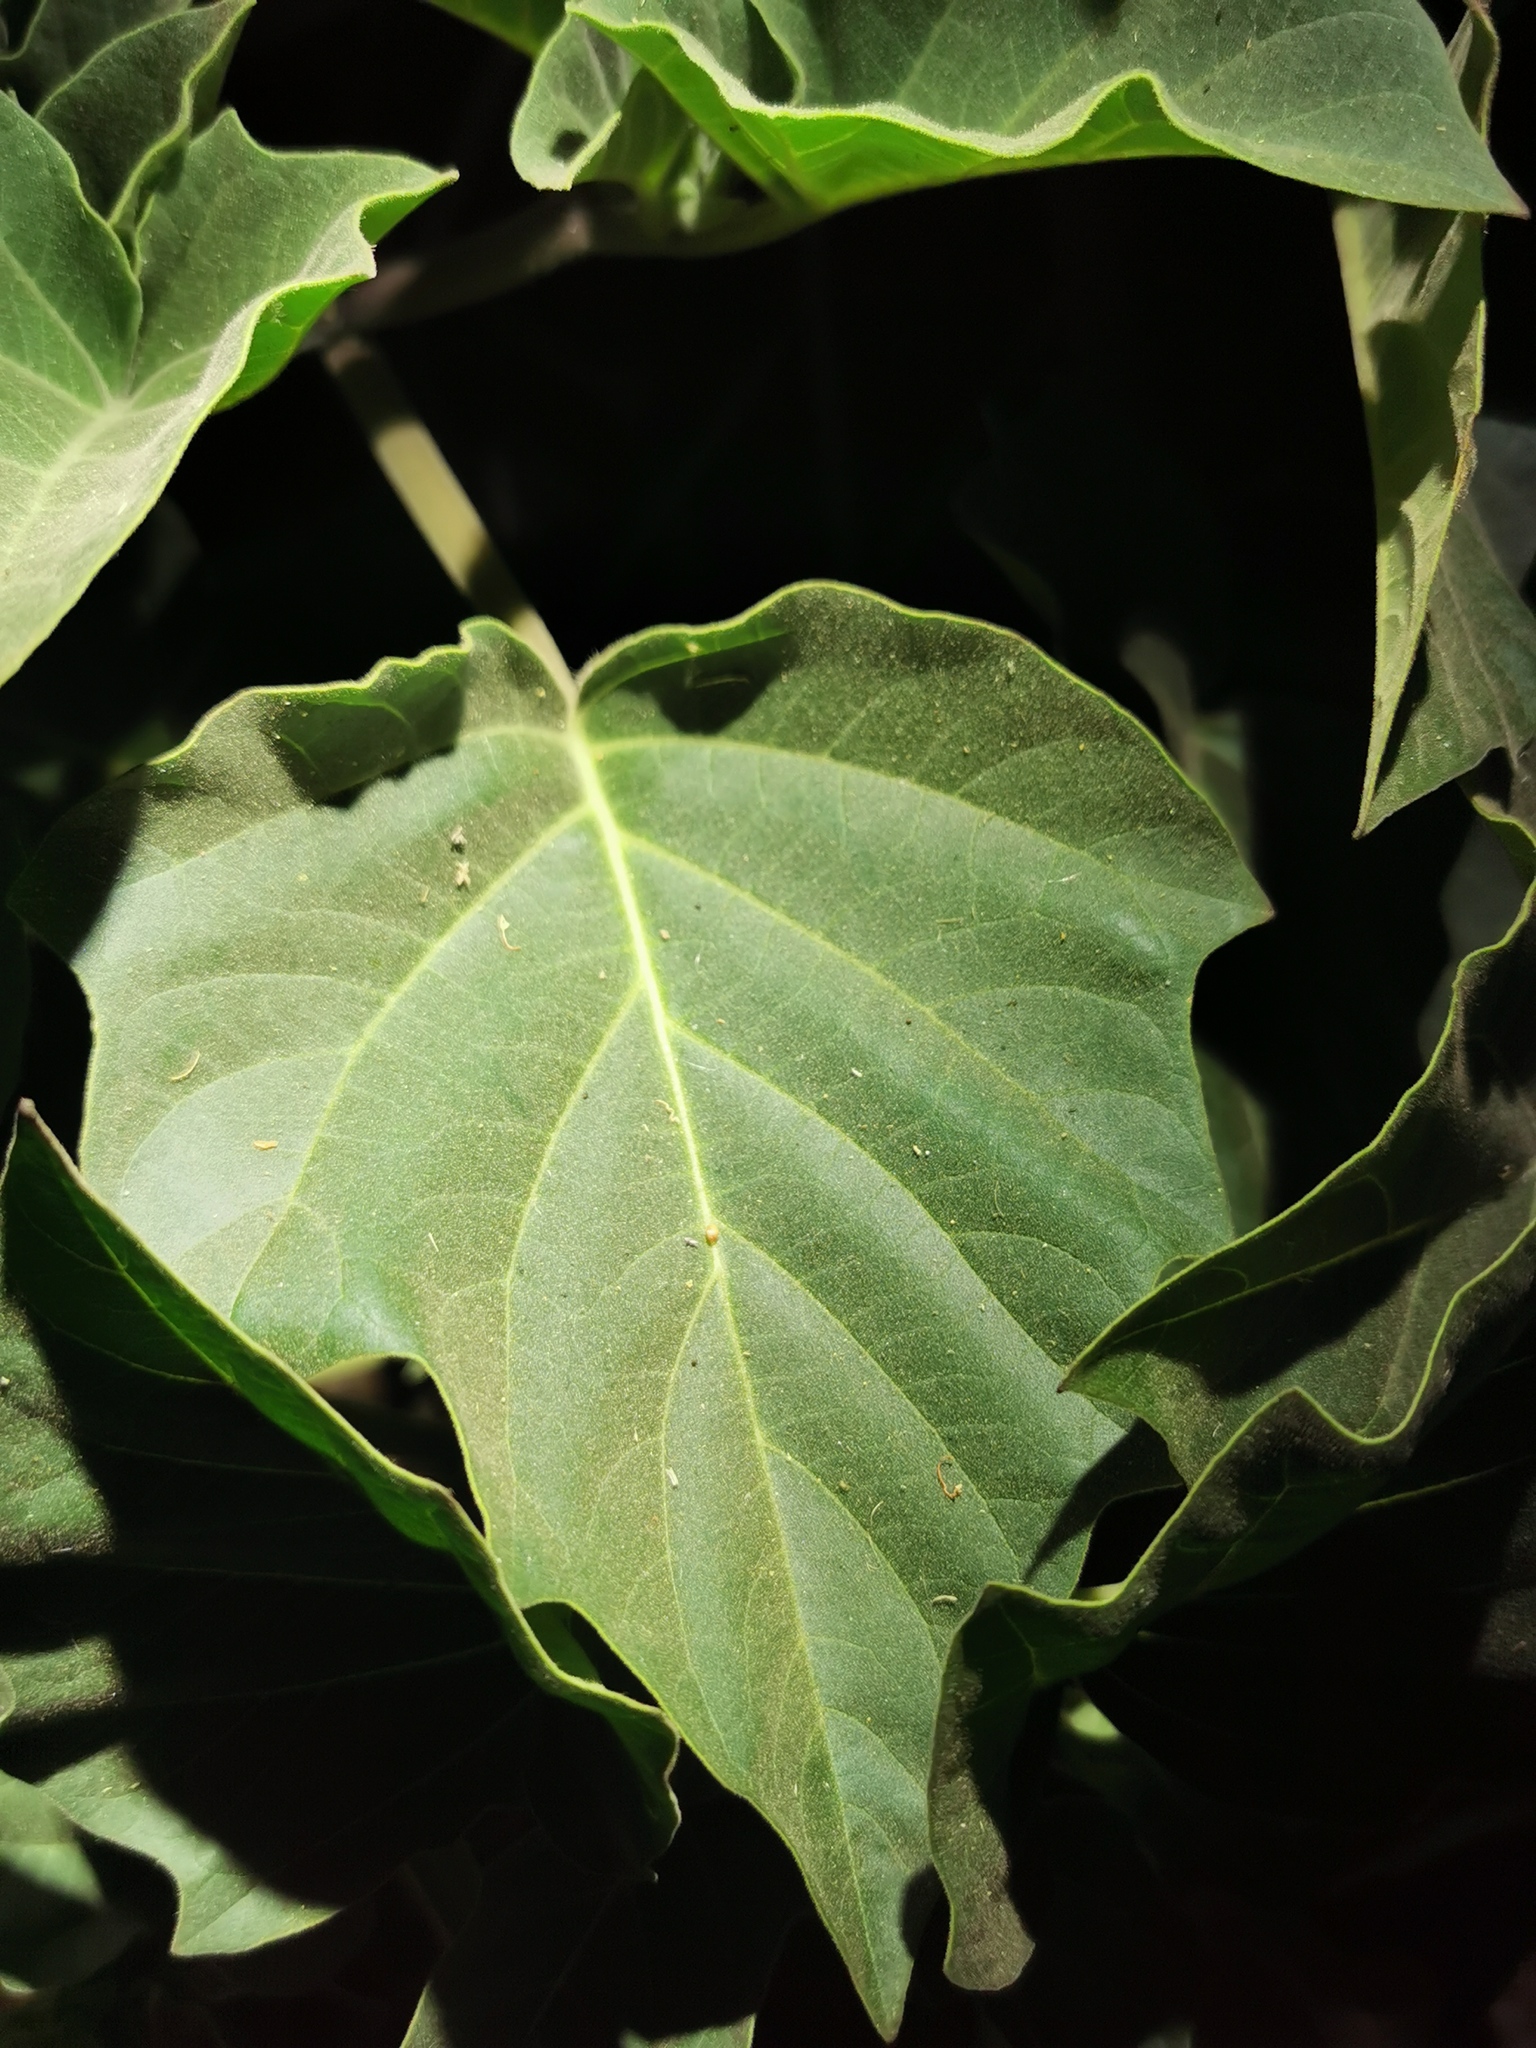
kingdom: Plantae
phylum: Tracheophyta
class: Magnoliopsida
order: Solanales
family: Solanaceae
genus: Datura
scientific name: Datura innoxia
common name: Downy thorn-apple
